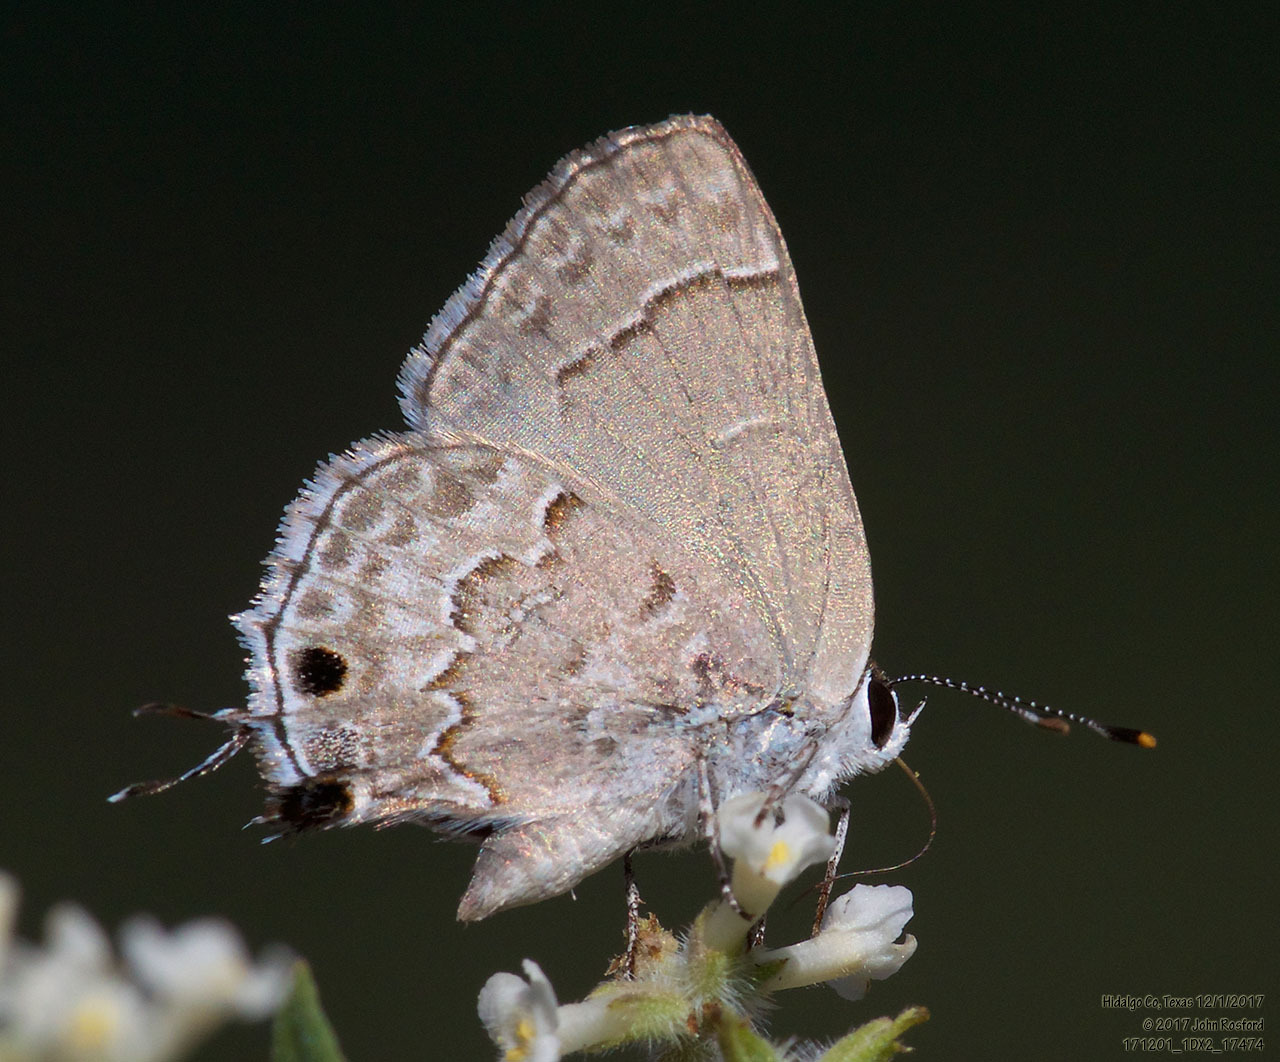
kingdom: Animalia
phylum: Arthropoda
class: Insecta
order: Lepidoptera
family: Lycaenidae
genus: Strymon
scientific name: Strymon alea
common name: Lacey's scrub-hairstreak
